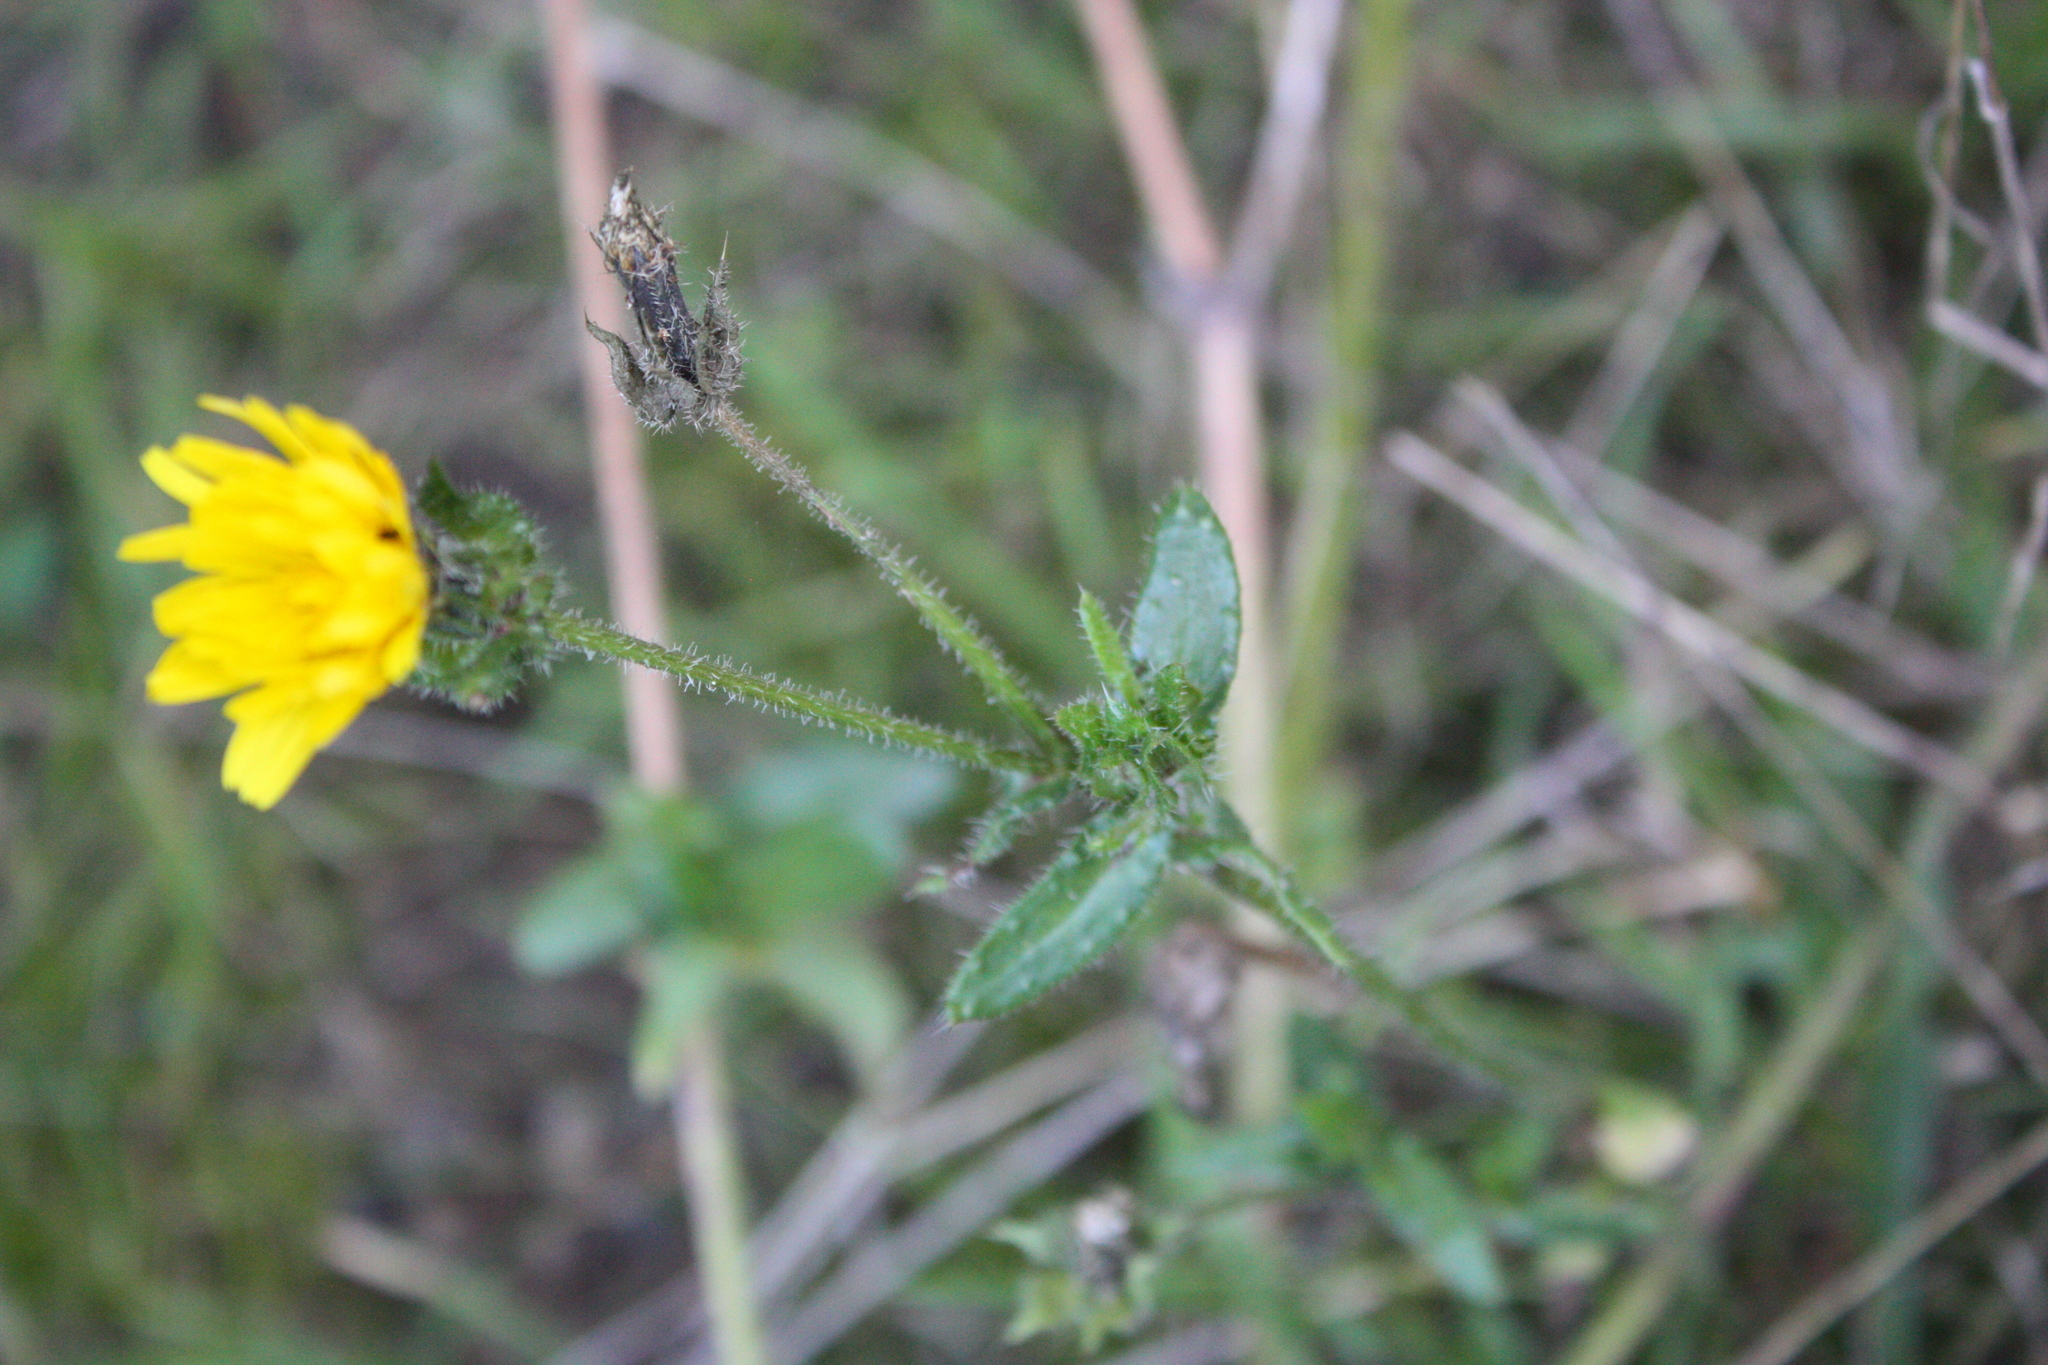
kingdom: Plantae
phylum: Tracheophyta
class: Magnoliopsida
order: Asterales
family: Asteraceae
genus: Helminthotheca
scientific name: Helminthotheca echioides
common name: Ox-tongue
